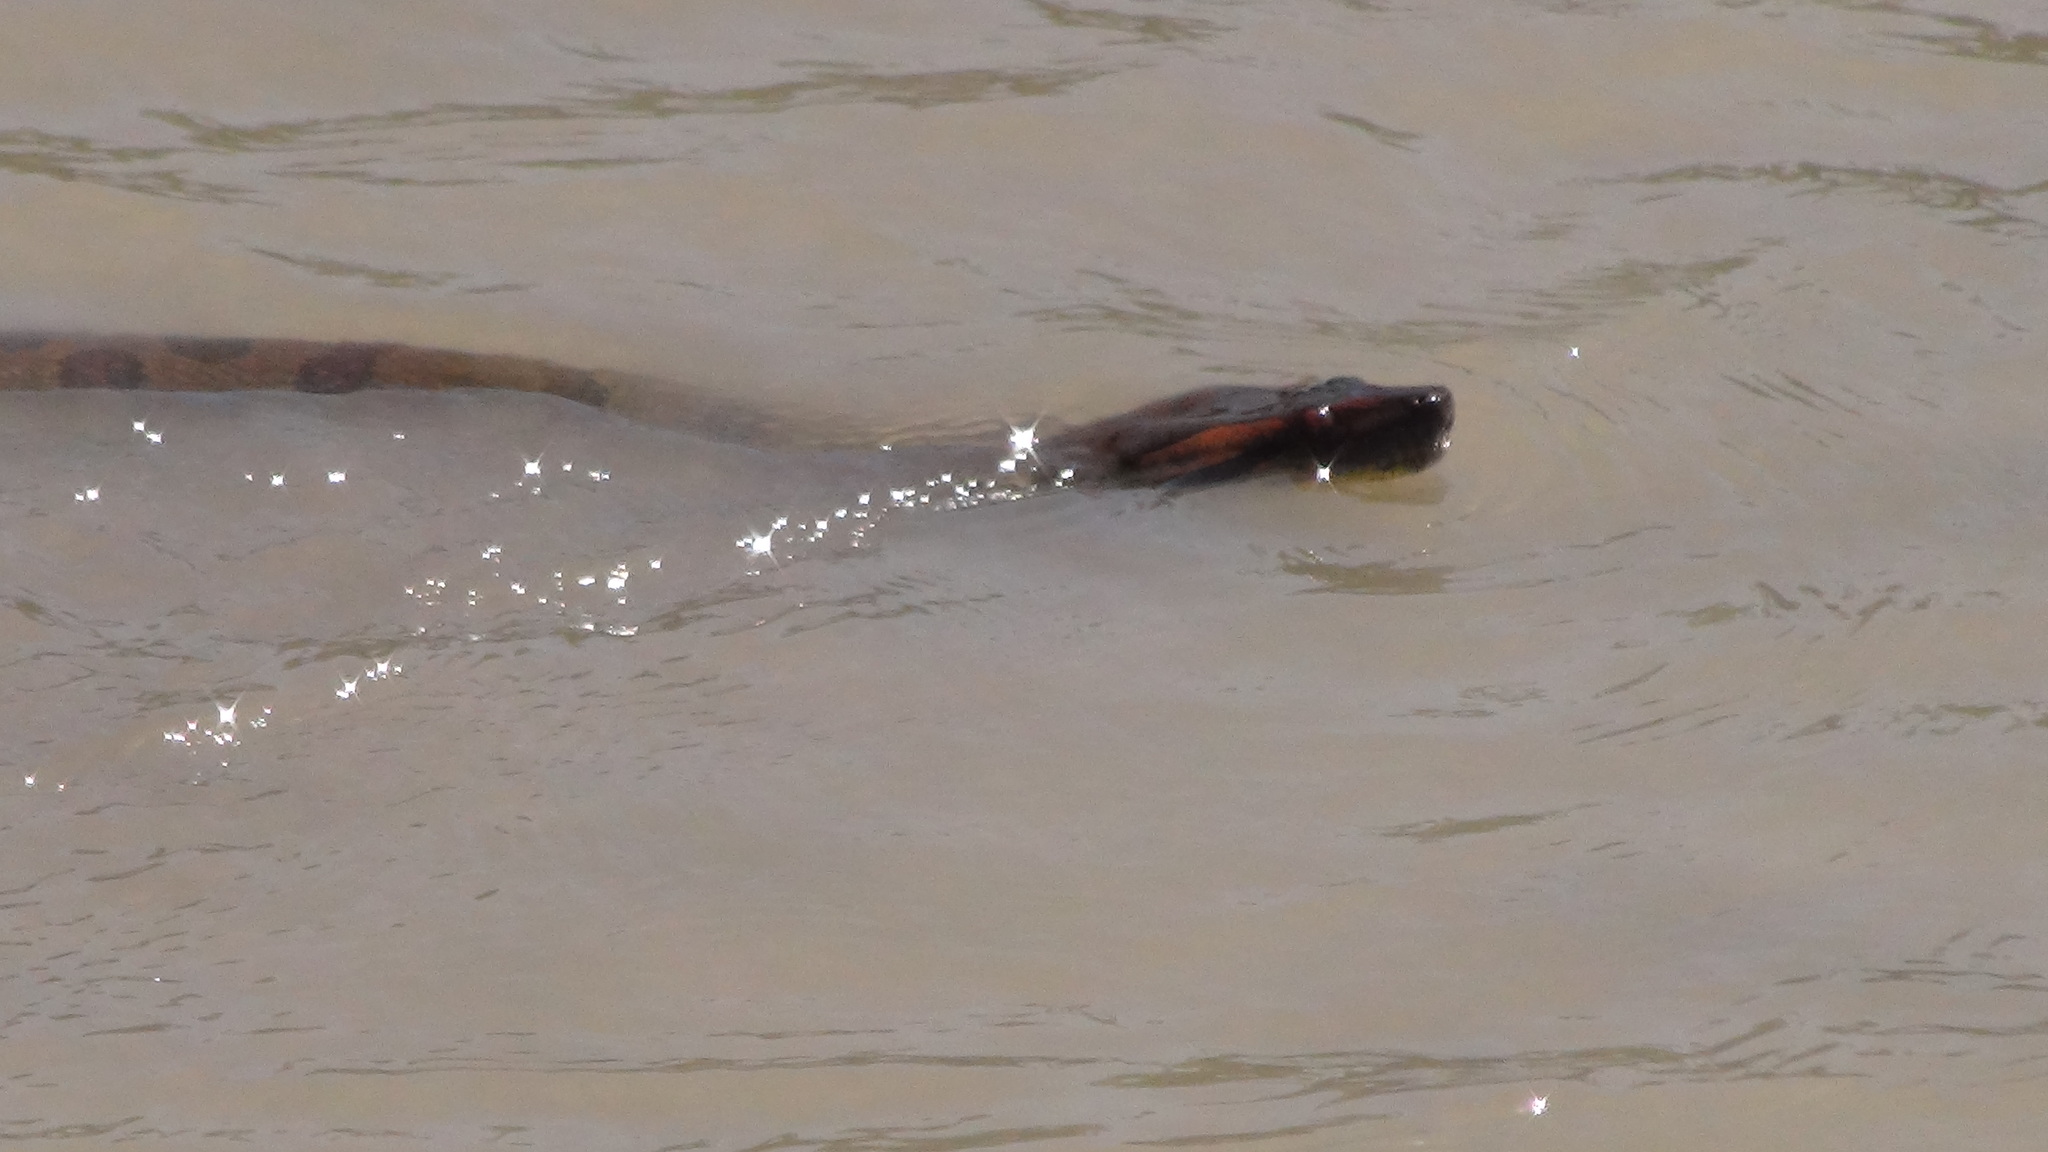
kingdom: Animalia
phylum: Chordata
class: Squamata
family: Boidae
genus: Eunectes
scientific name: Eunectes murinus
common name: Anaconda
